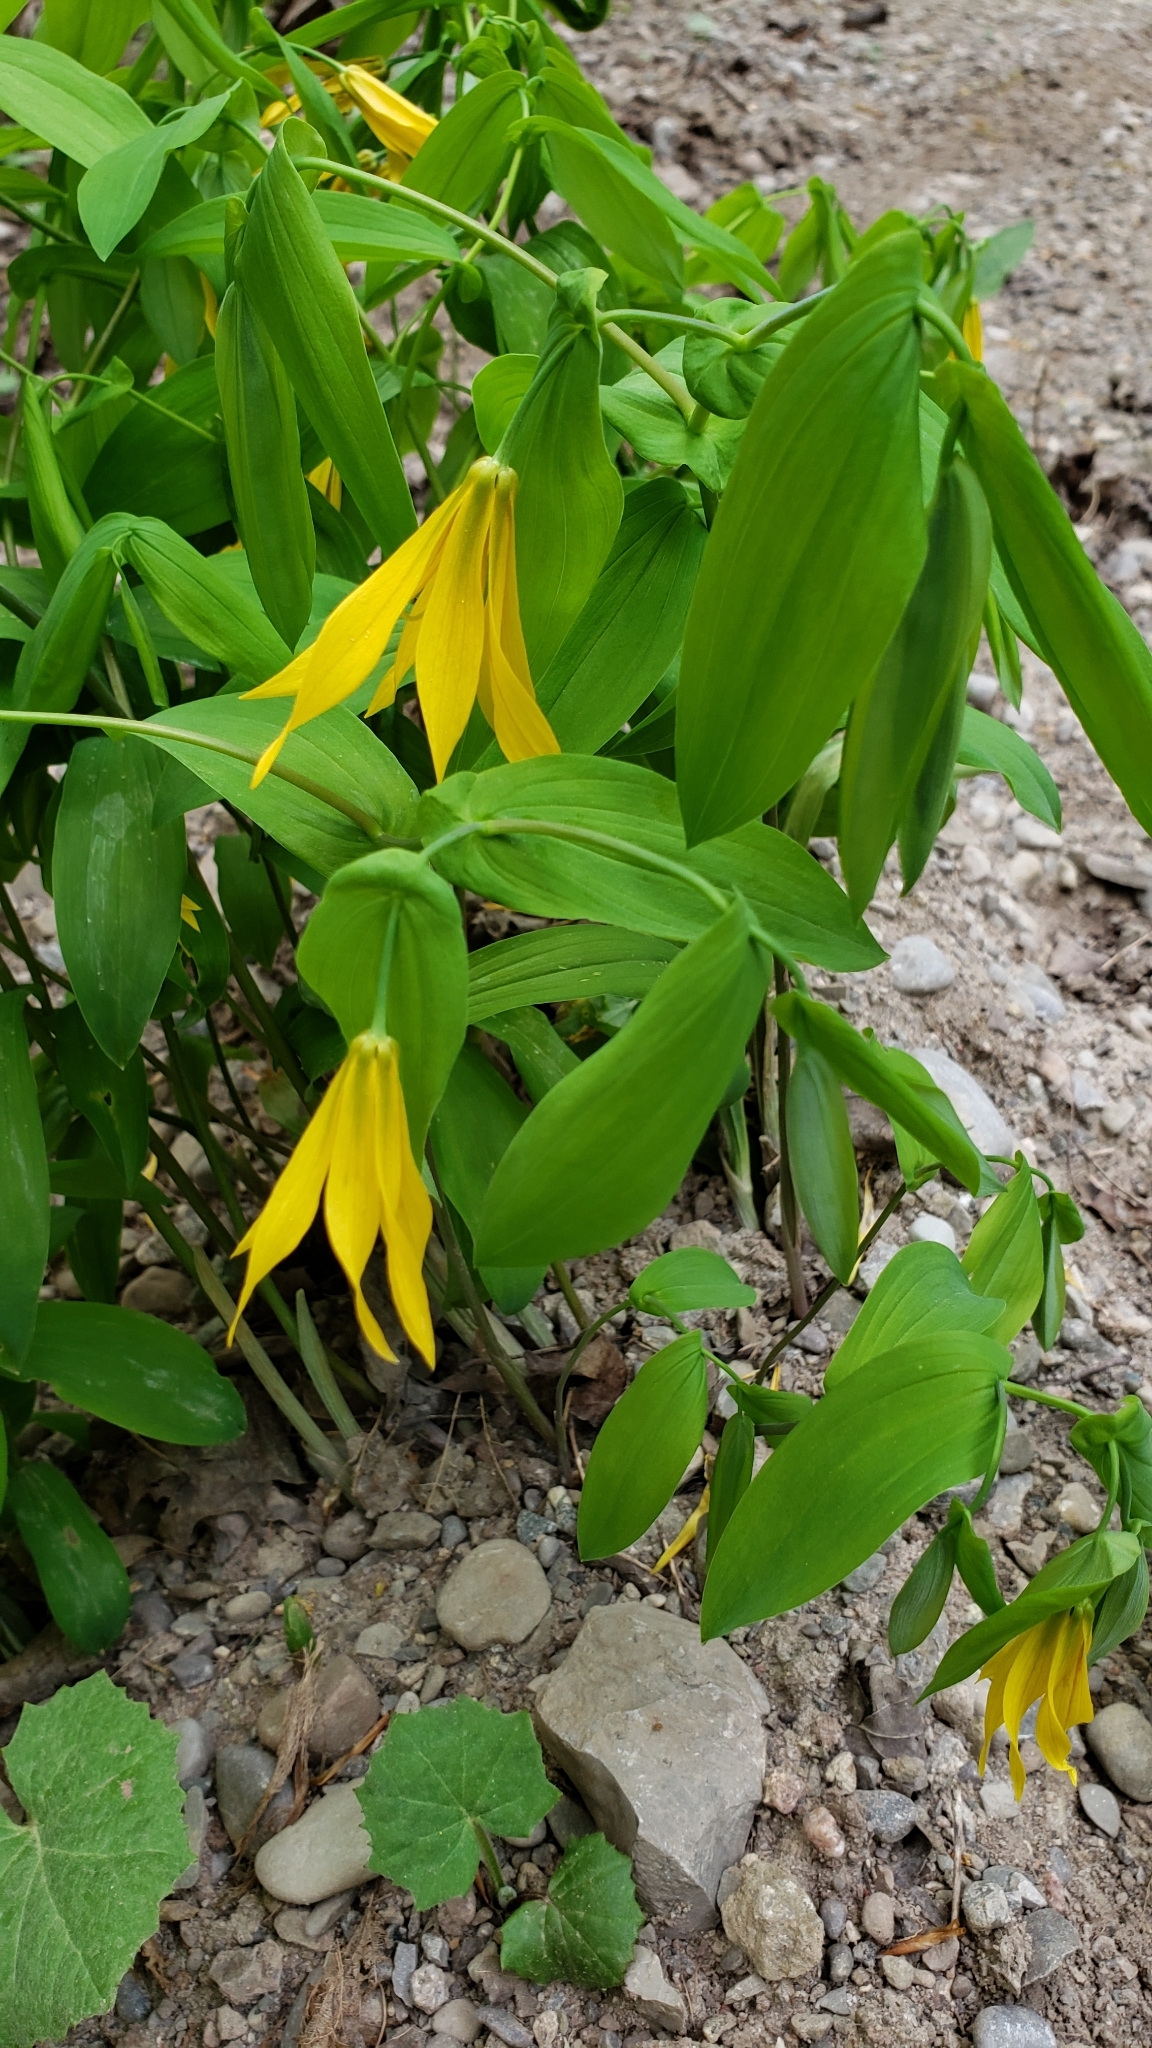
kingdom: Plantae
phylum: Tracheophyta
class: Liliopsida
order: Liliales
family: Colchicaceae
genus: Uvularia
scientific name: Uvularia grandiflora
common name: Bellwort
